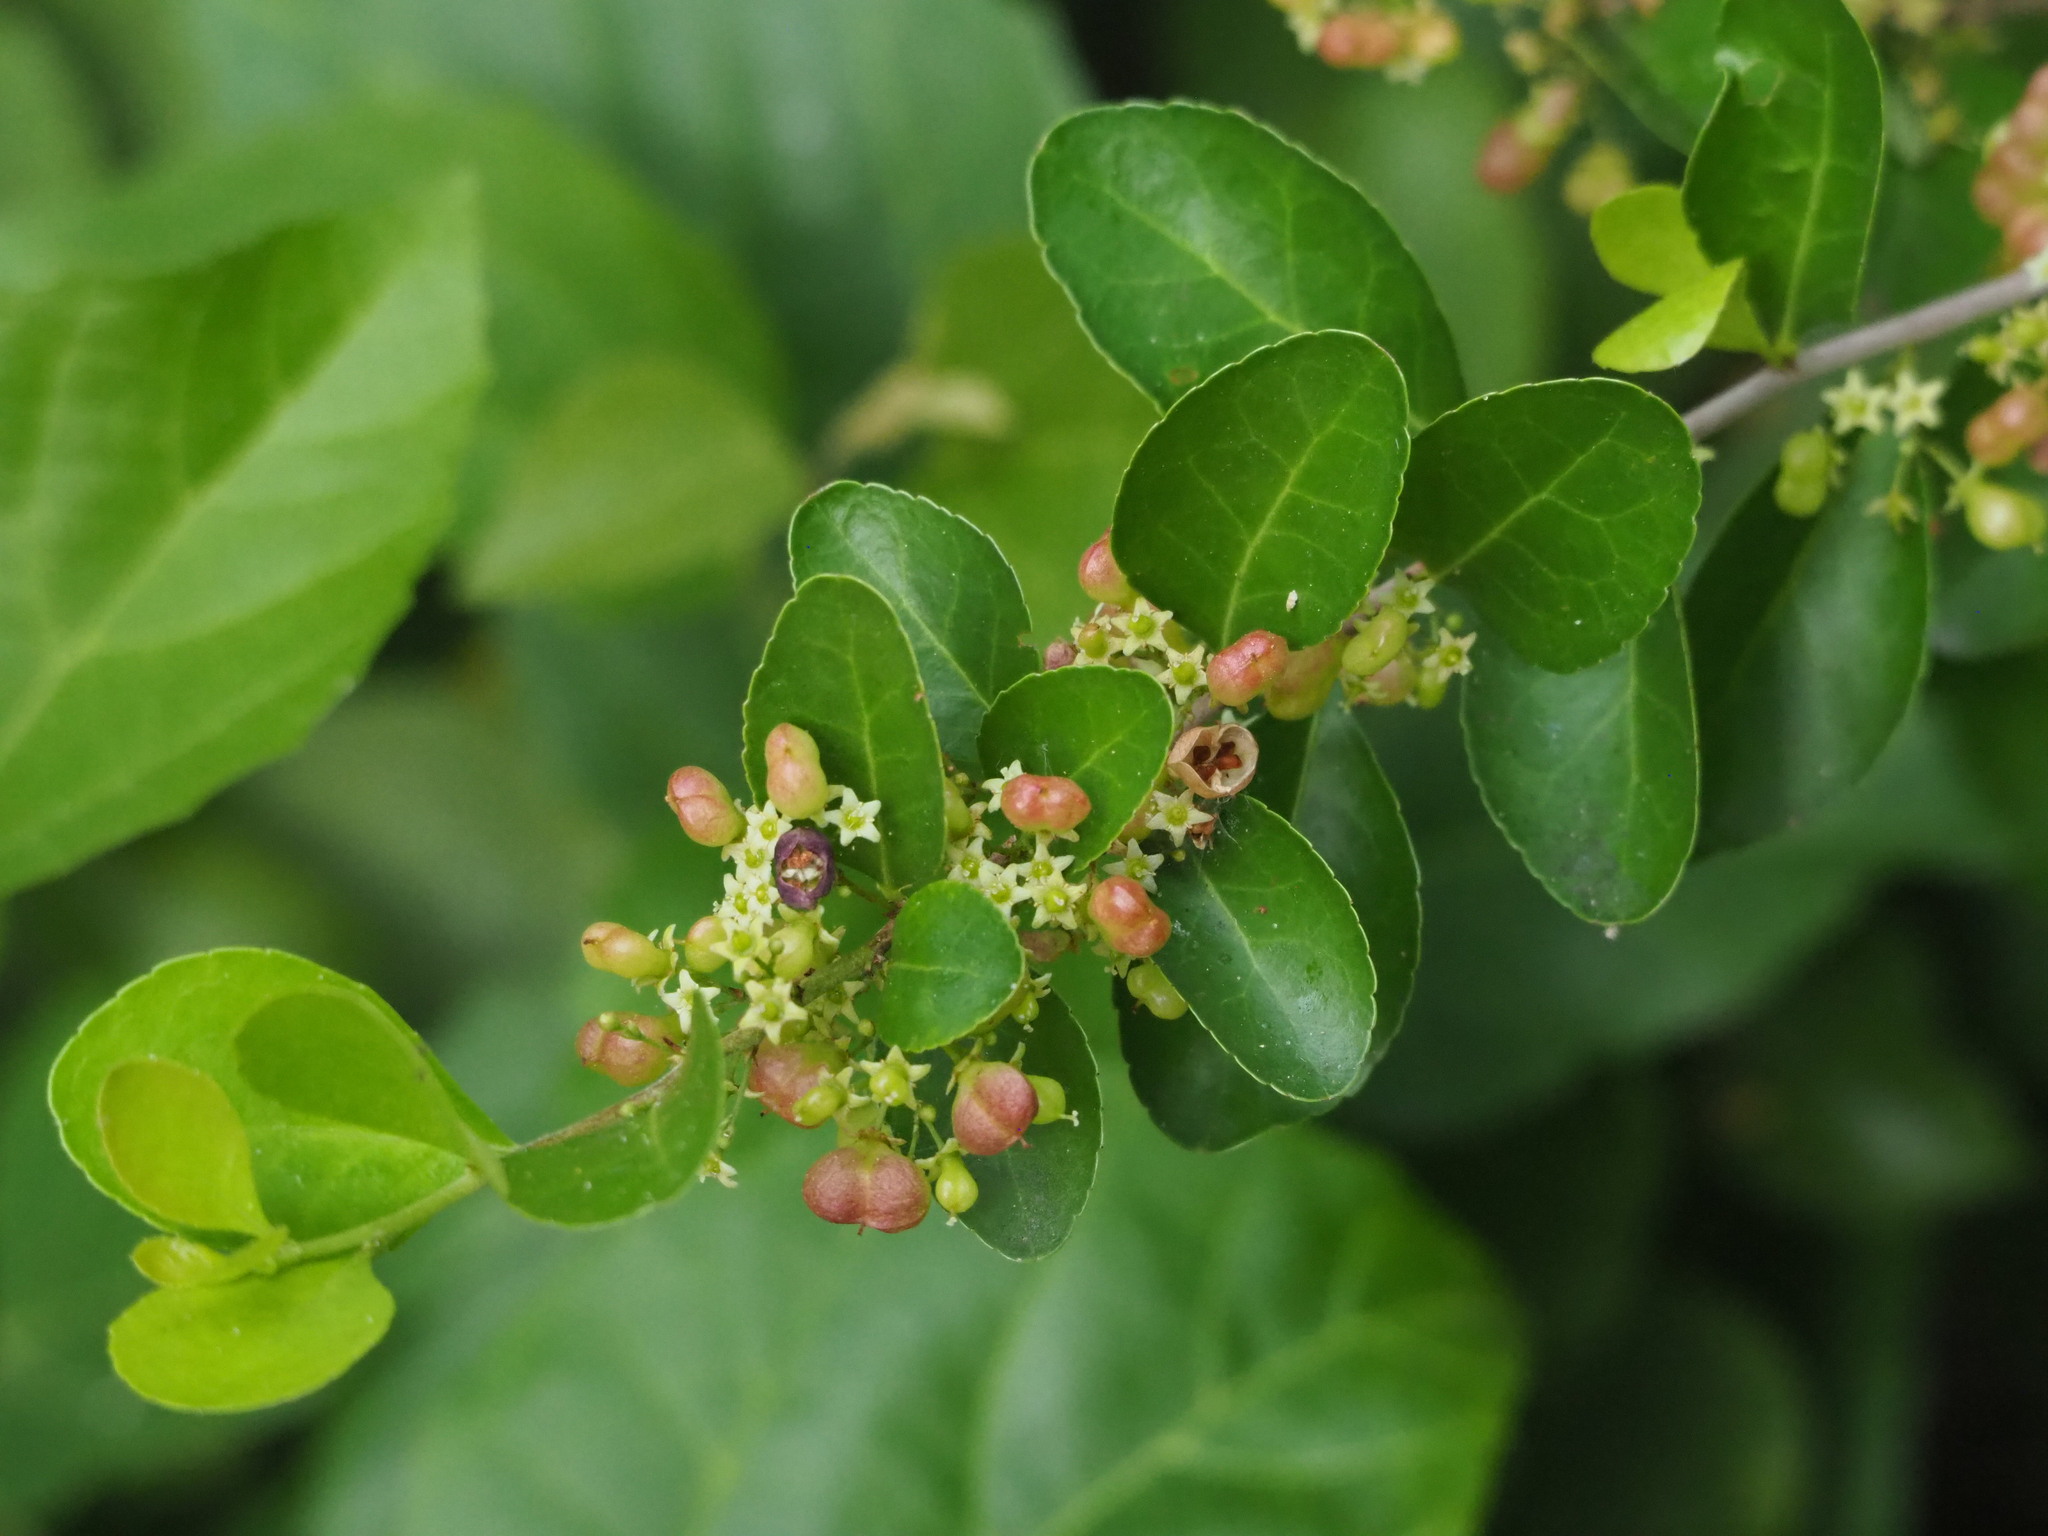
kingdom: Plantae
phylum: Tracheophyta
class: Magnoliopsida
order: Celastrales
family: Celastraceae
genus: Gymnosporia
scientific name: Gymnosporia diversifolia
